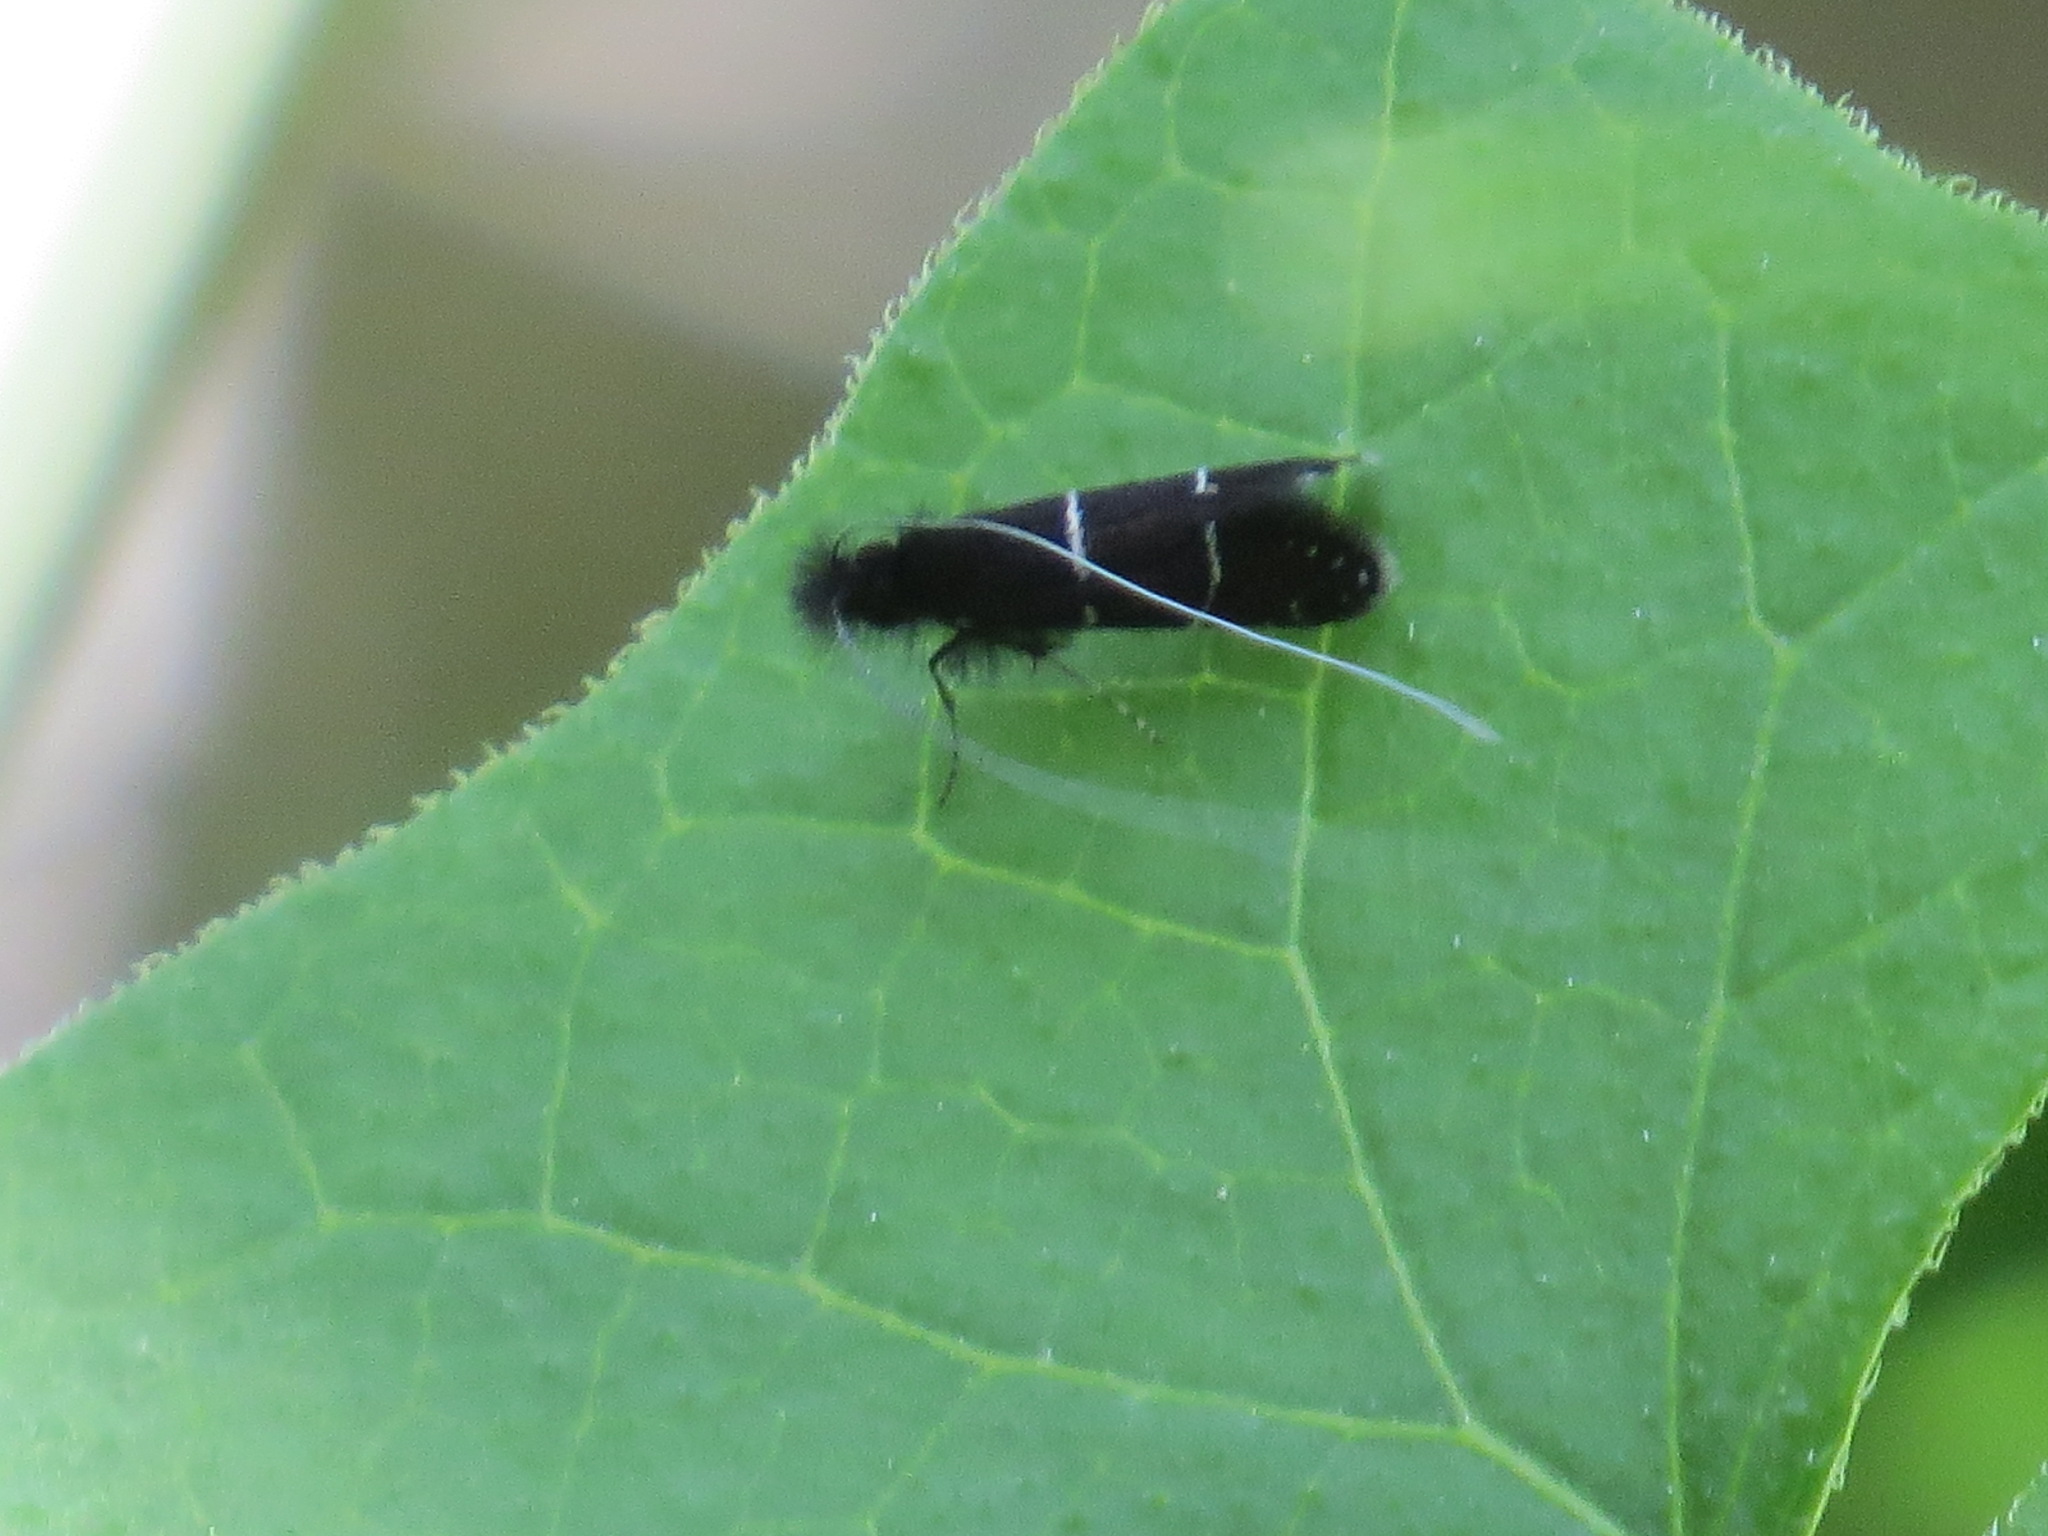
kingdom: Animalia
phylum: Arthropoda
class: Insecta
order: Lepidoptera
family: Adelidae
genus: Adela
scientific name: Adela septentrionella
